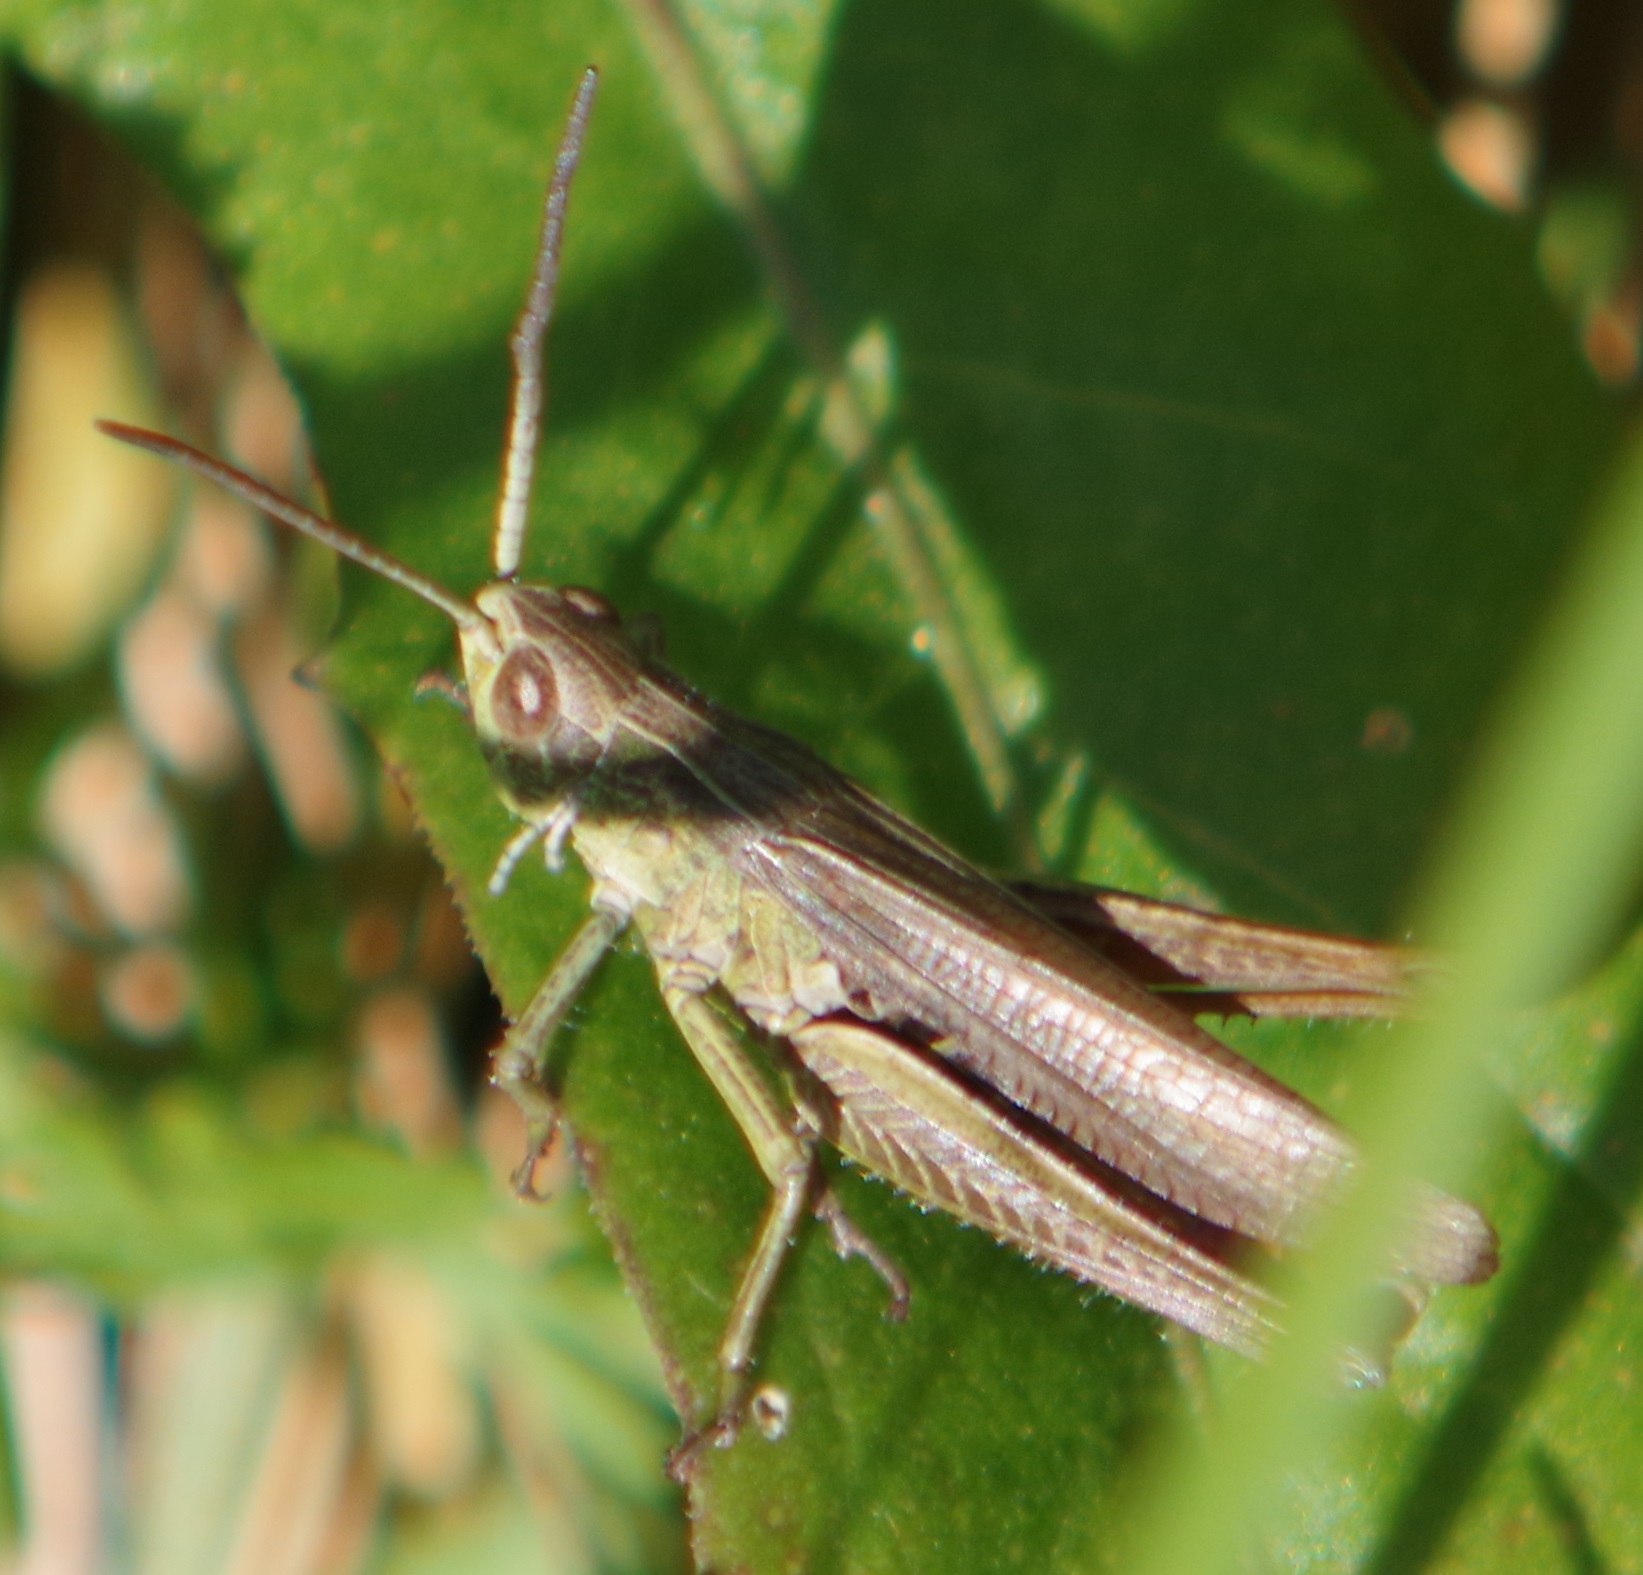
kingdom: Animalia
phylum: Arthropoda
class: Insecta
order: Orthoptera
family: Acrididae
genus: Chorthippus
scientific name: Chorthippus dorsatus
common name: Steppe grasshopper
